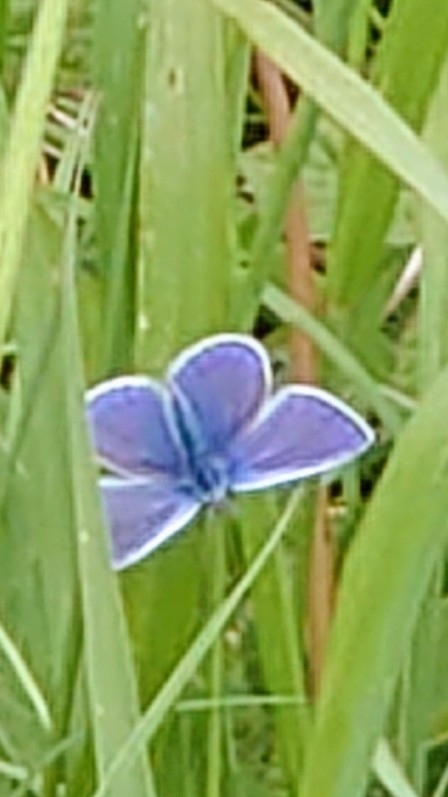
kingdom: Animalia
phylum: Arthropoda
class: Insecta
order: Lepidoptera
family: Lycaenidae
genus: Polyommatus
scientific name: Polyommatus icarus
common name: Common blue
